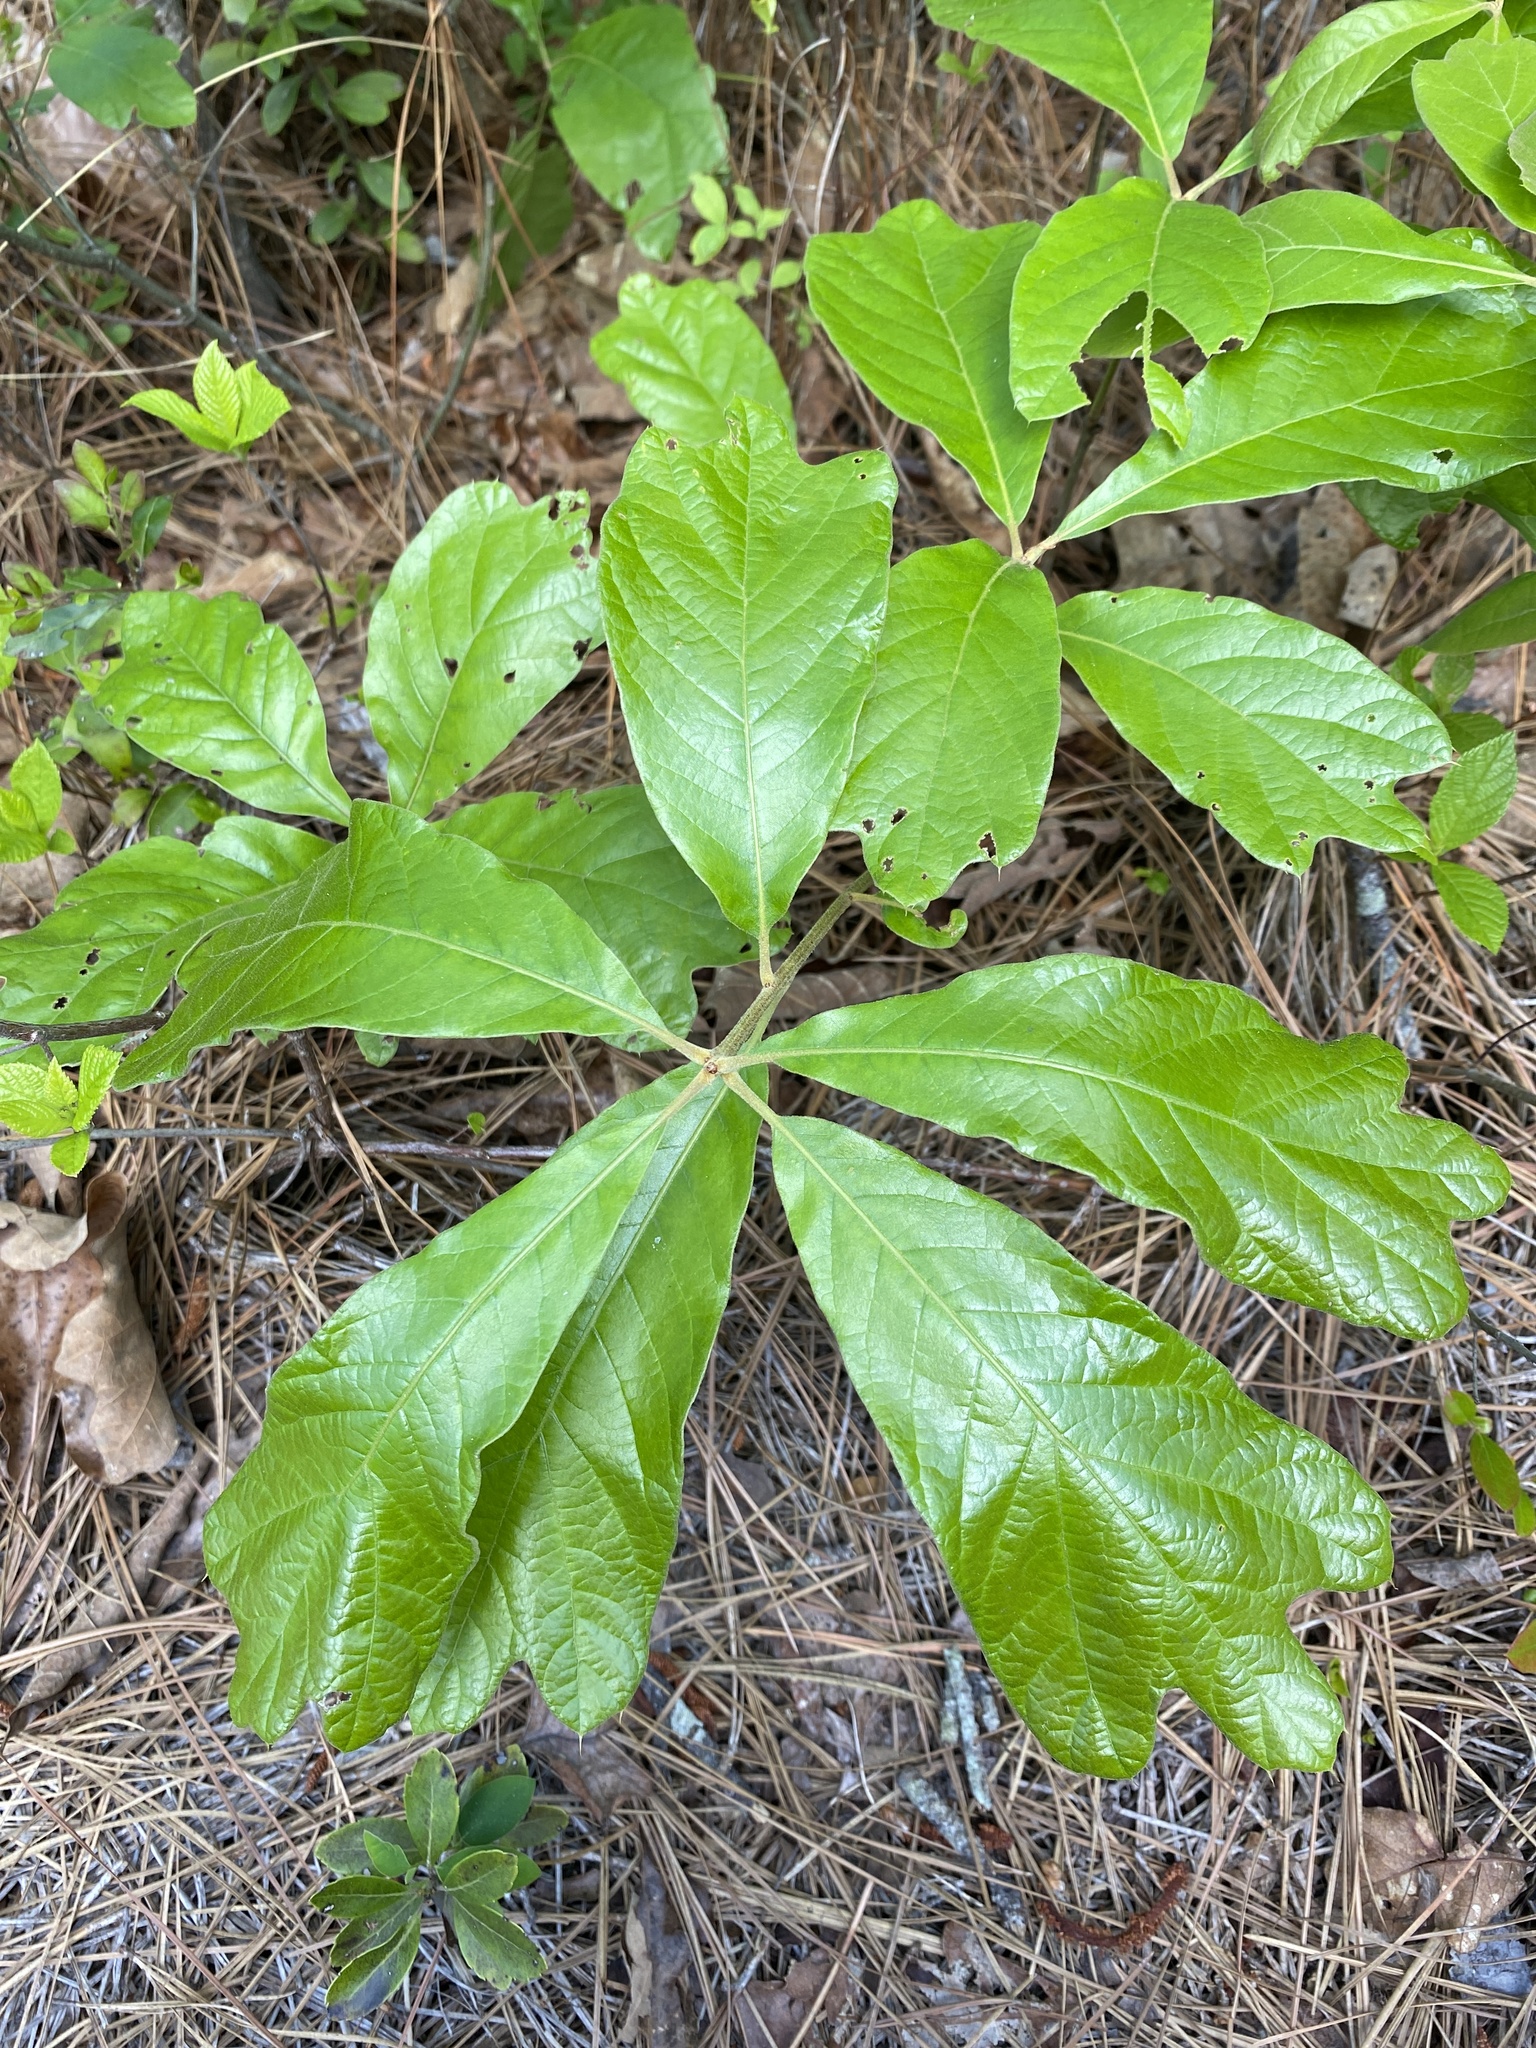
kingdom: Plantae
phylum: Tracheophyta
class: Magnoliopsida
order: Fagales
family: Fagaceae
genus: Quercus
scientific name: Quercus falcata
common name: Southern red oak
